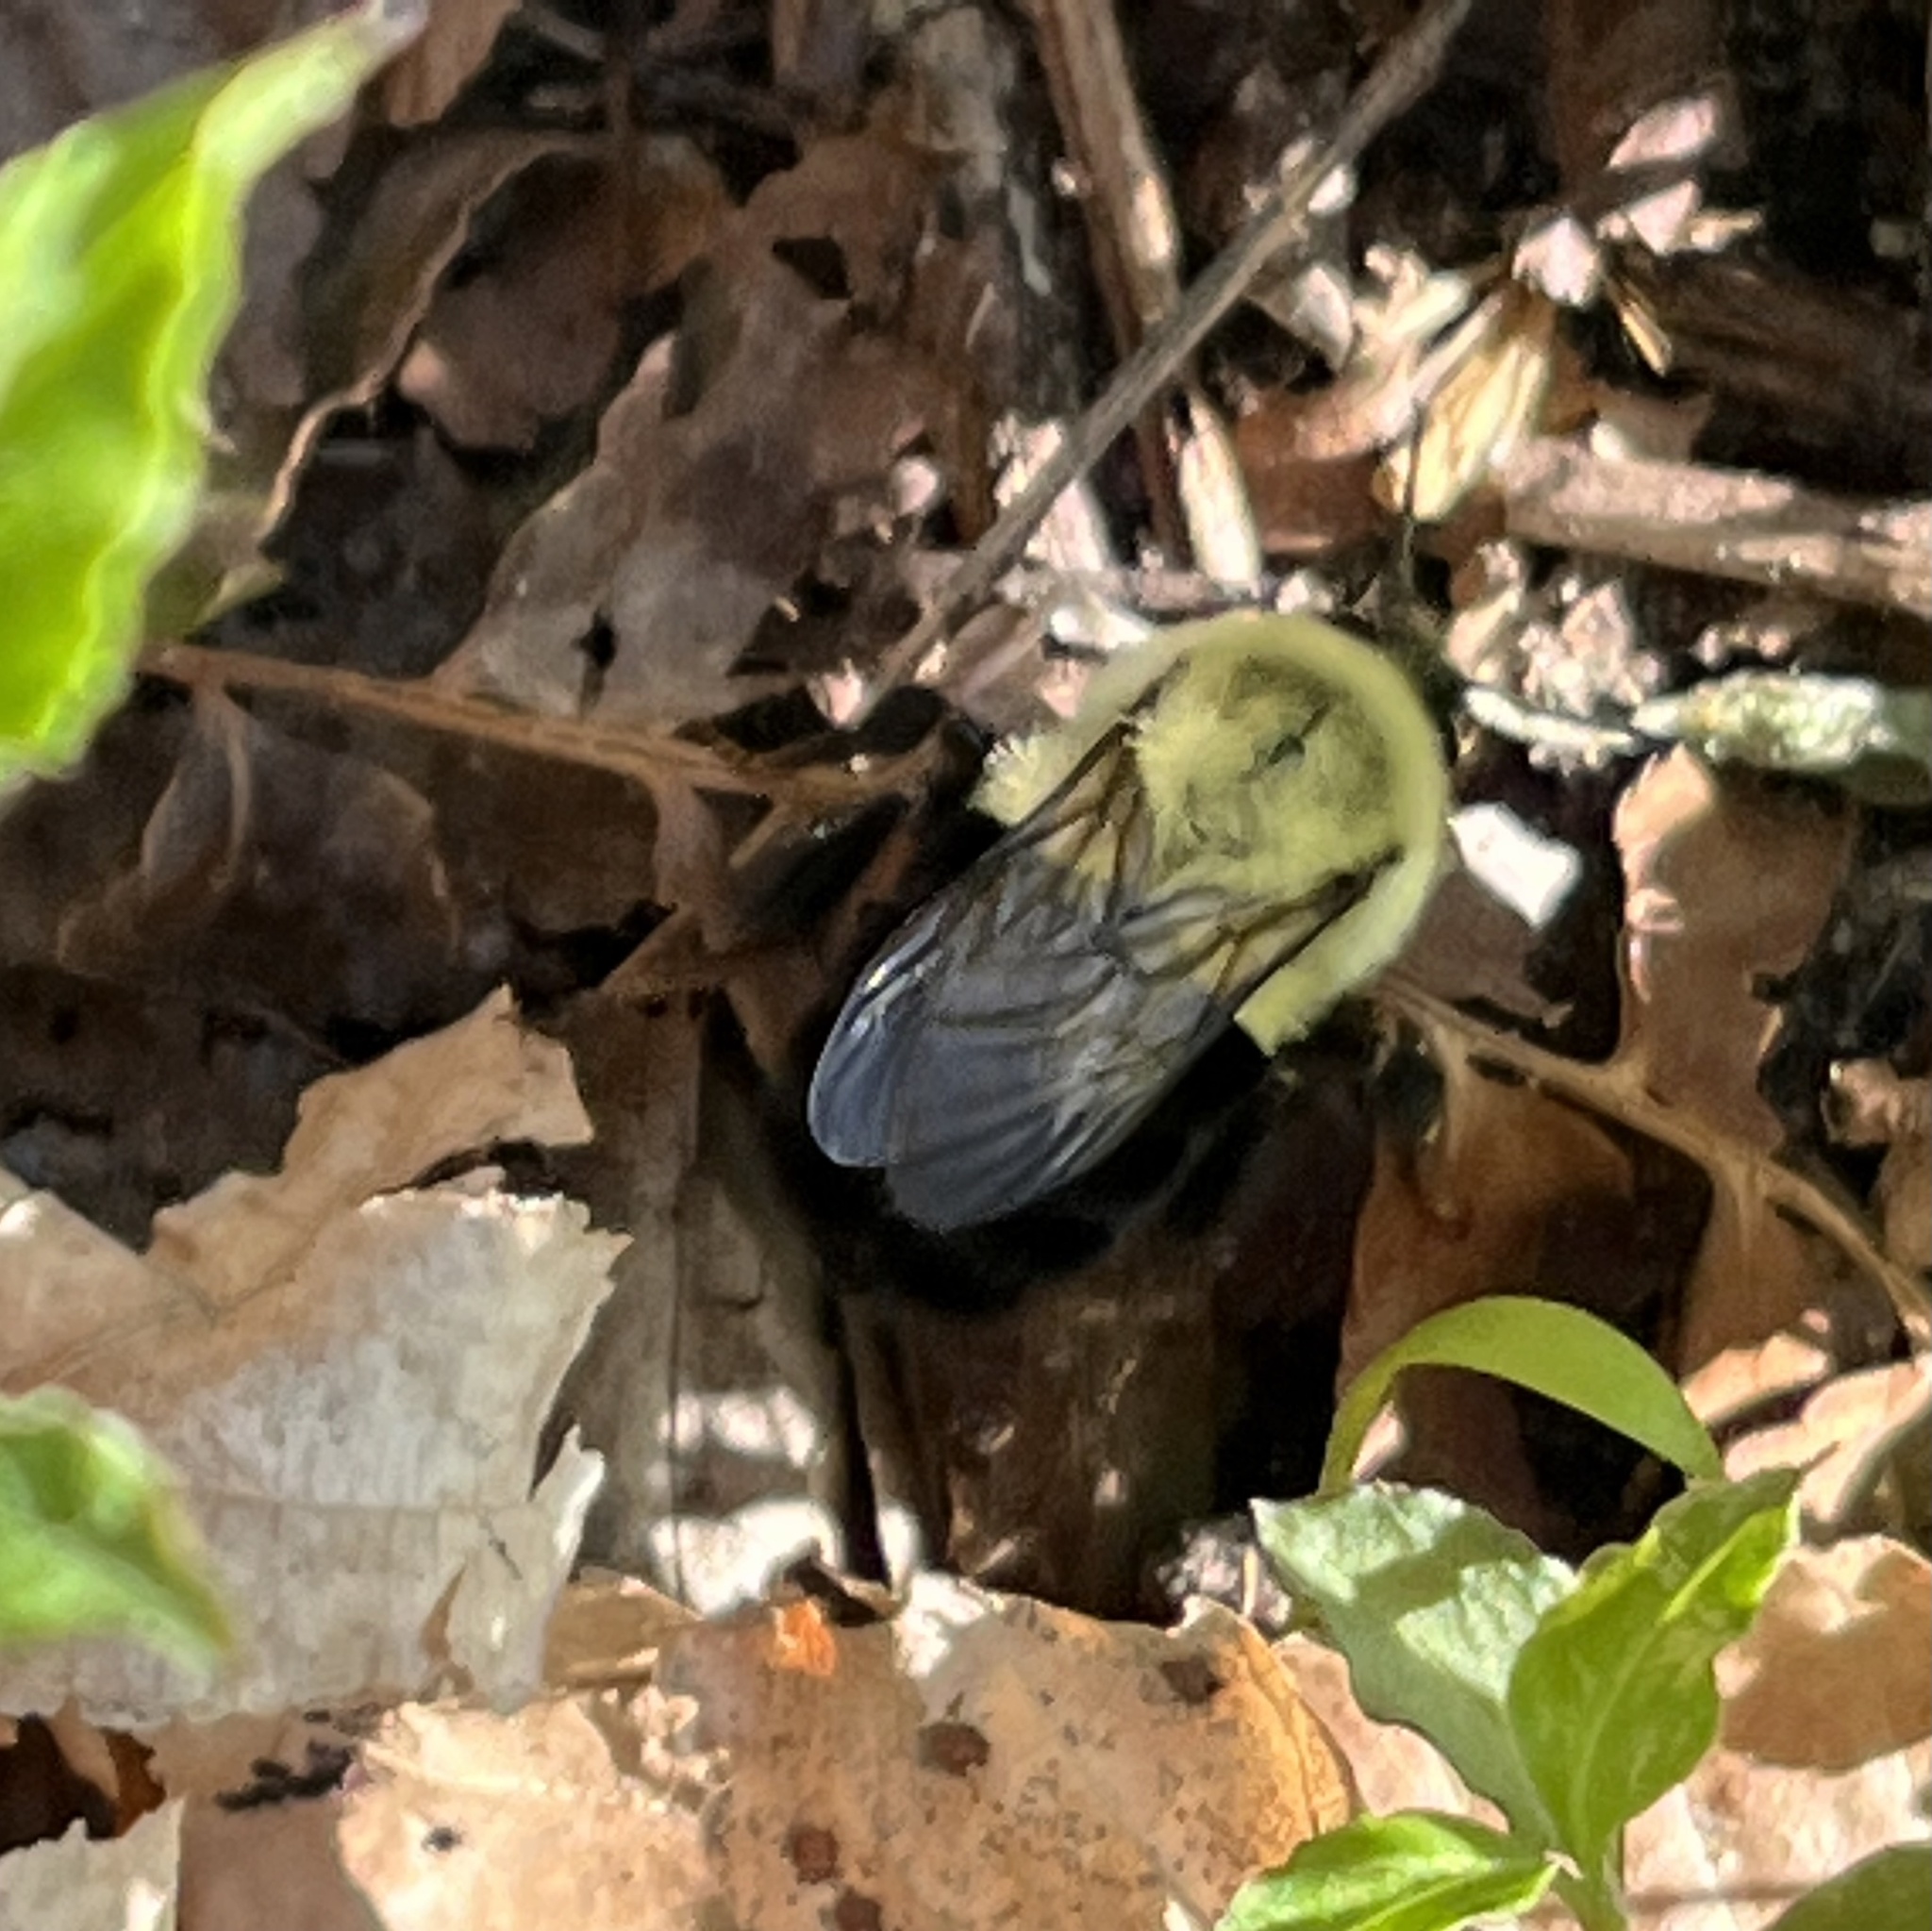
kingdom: Animalia
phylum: Arthropoda
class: Insecta
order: Hymenoptera
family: Apidae
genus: Bombus
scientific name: Bombus impatiens
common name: Common eastern bumble bee
